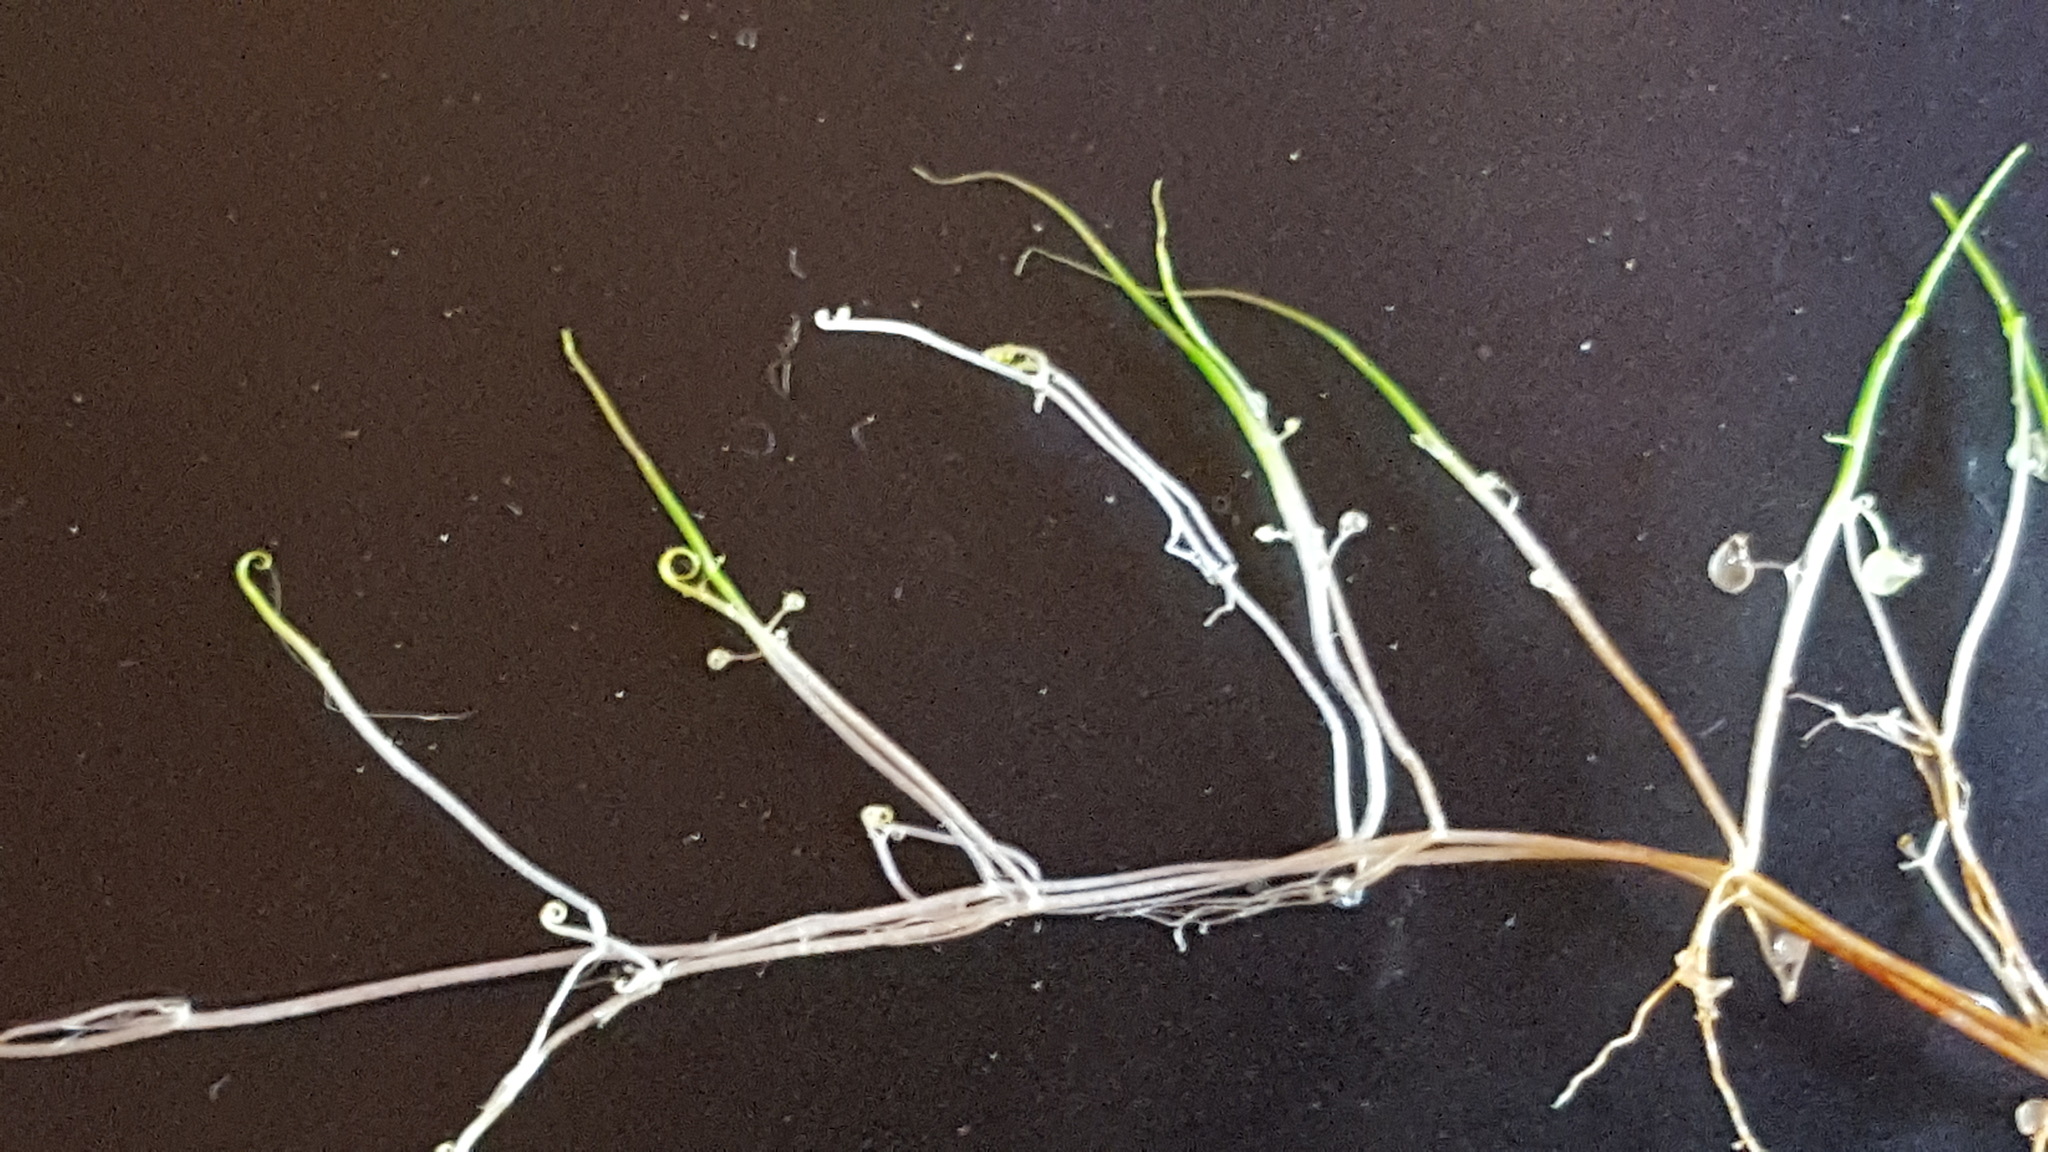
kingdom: Plantae
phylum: Tracheophyta
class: Magnoliopsida
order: Lamiales
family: Lentibulariaceae
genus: Utricularia
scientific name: Utricularia resupinata
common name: Northeastern bladderwort
